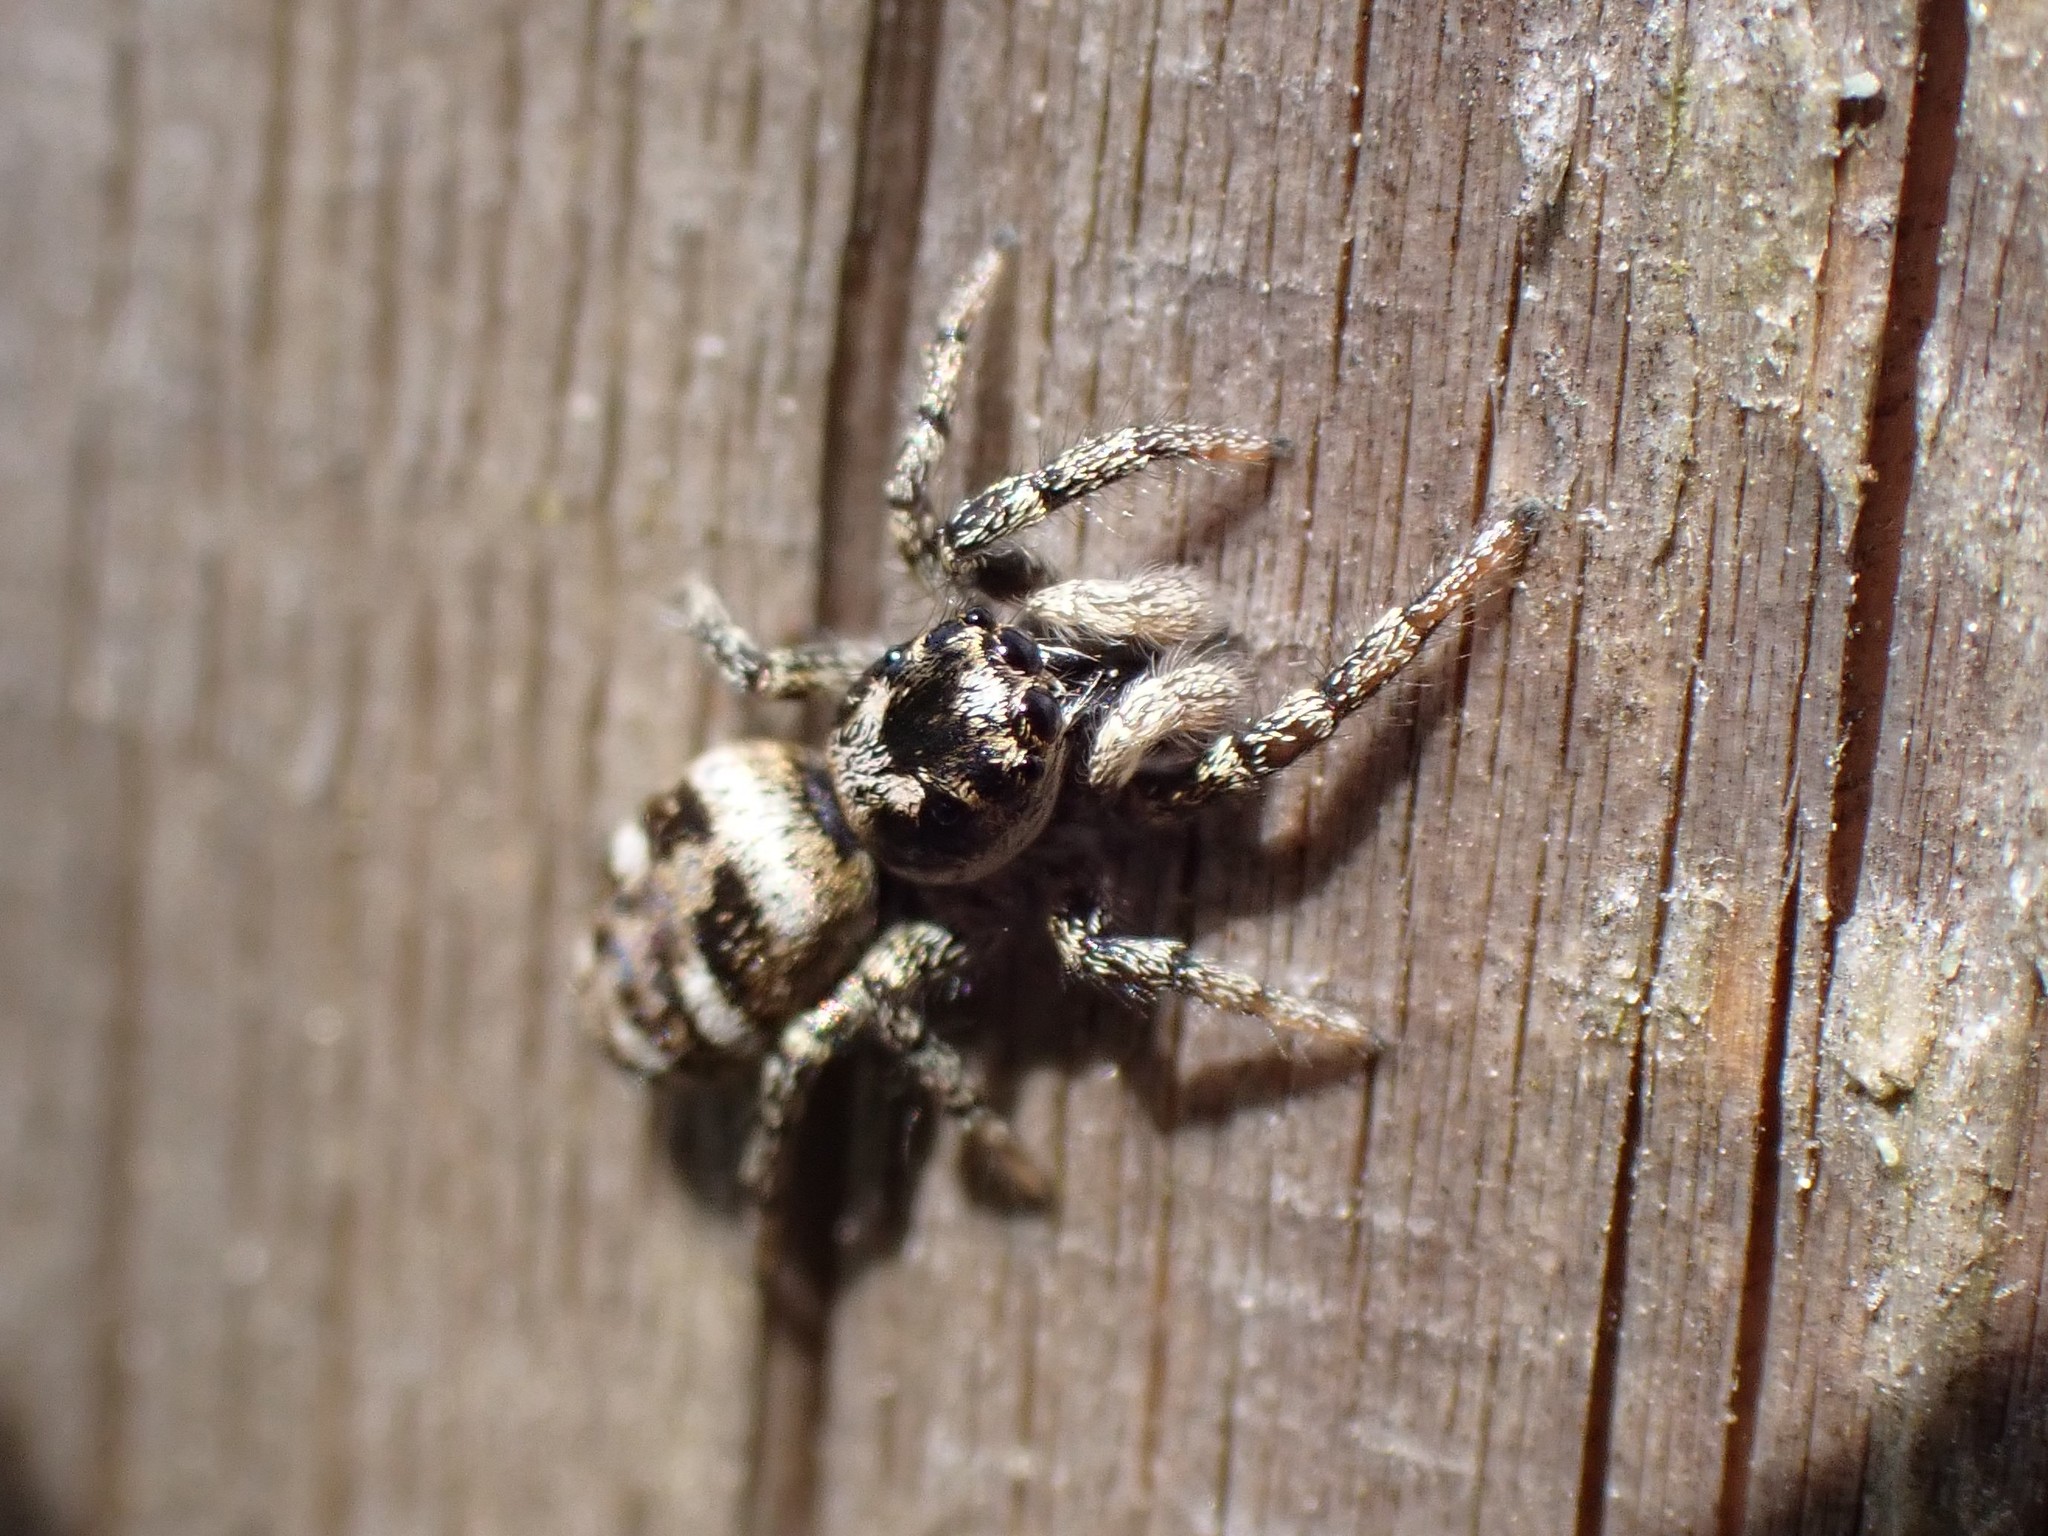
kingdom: Animalia
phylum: Arthropoda
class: Arachnida
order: Araneae
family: Salticidae
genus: Salticus
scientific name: Salticus scenicus
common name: Zebra jumper
